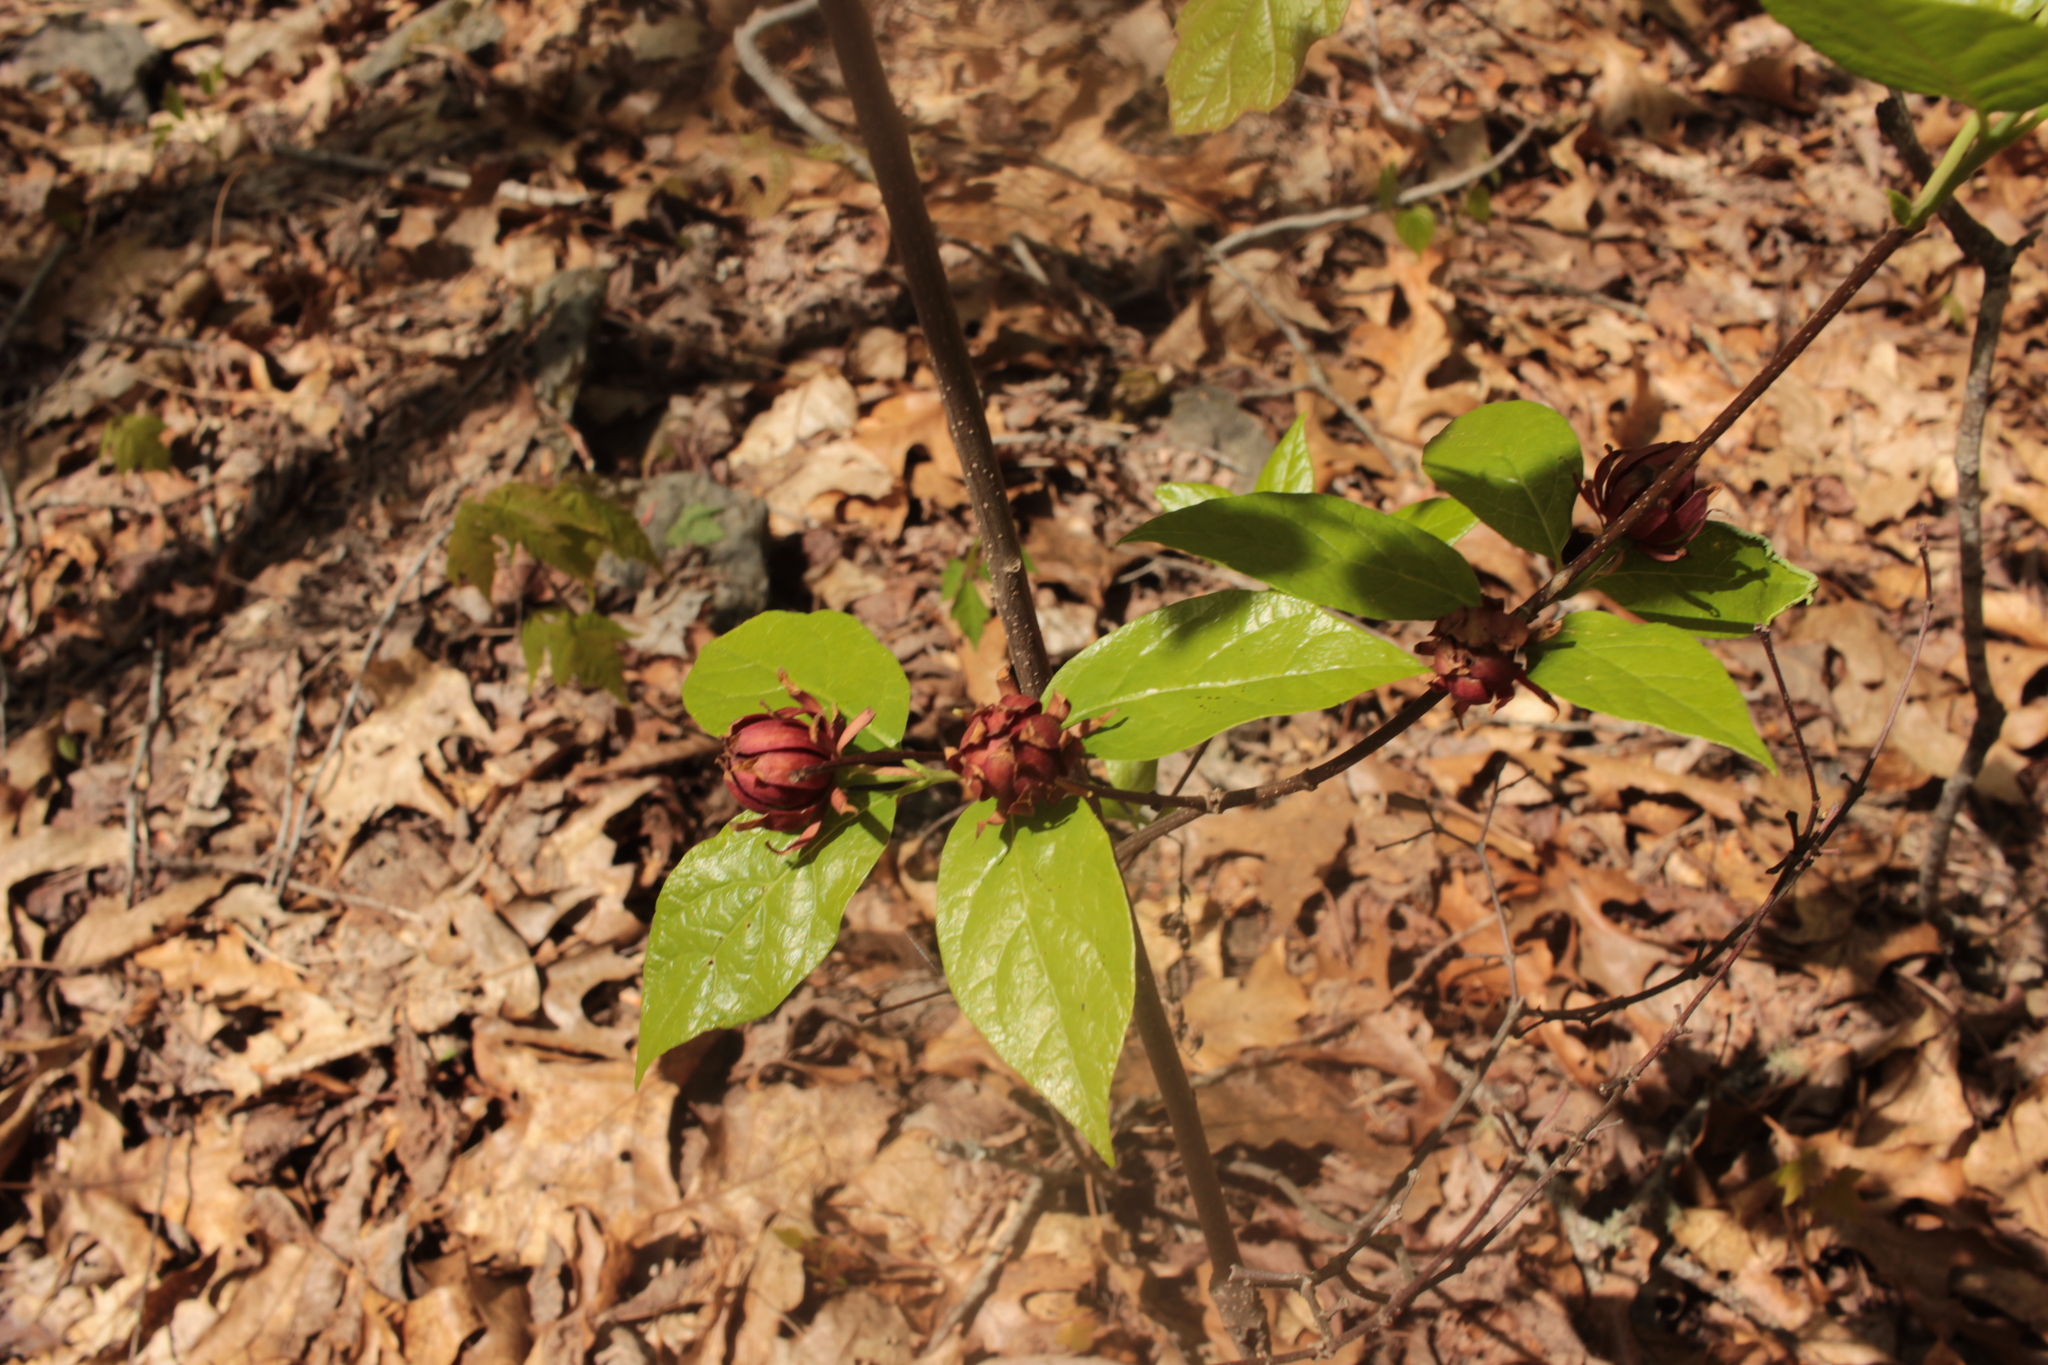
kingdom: Plantae
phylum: Tracheophyta
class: Magnoliopsida
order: Laurales
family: Calycanthaceae
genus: Calycanthus
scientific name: Calycanthus floridus
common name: Carolina-allspice
